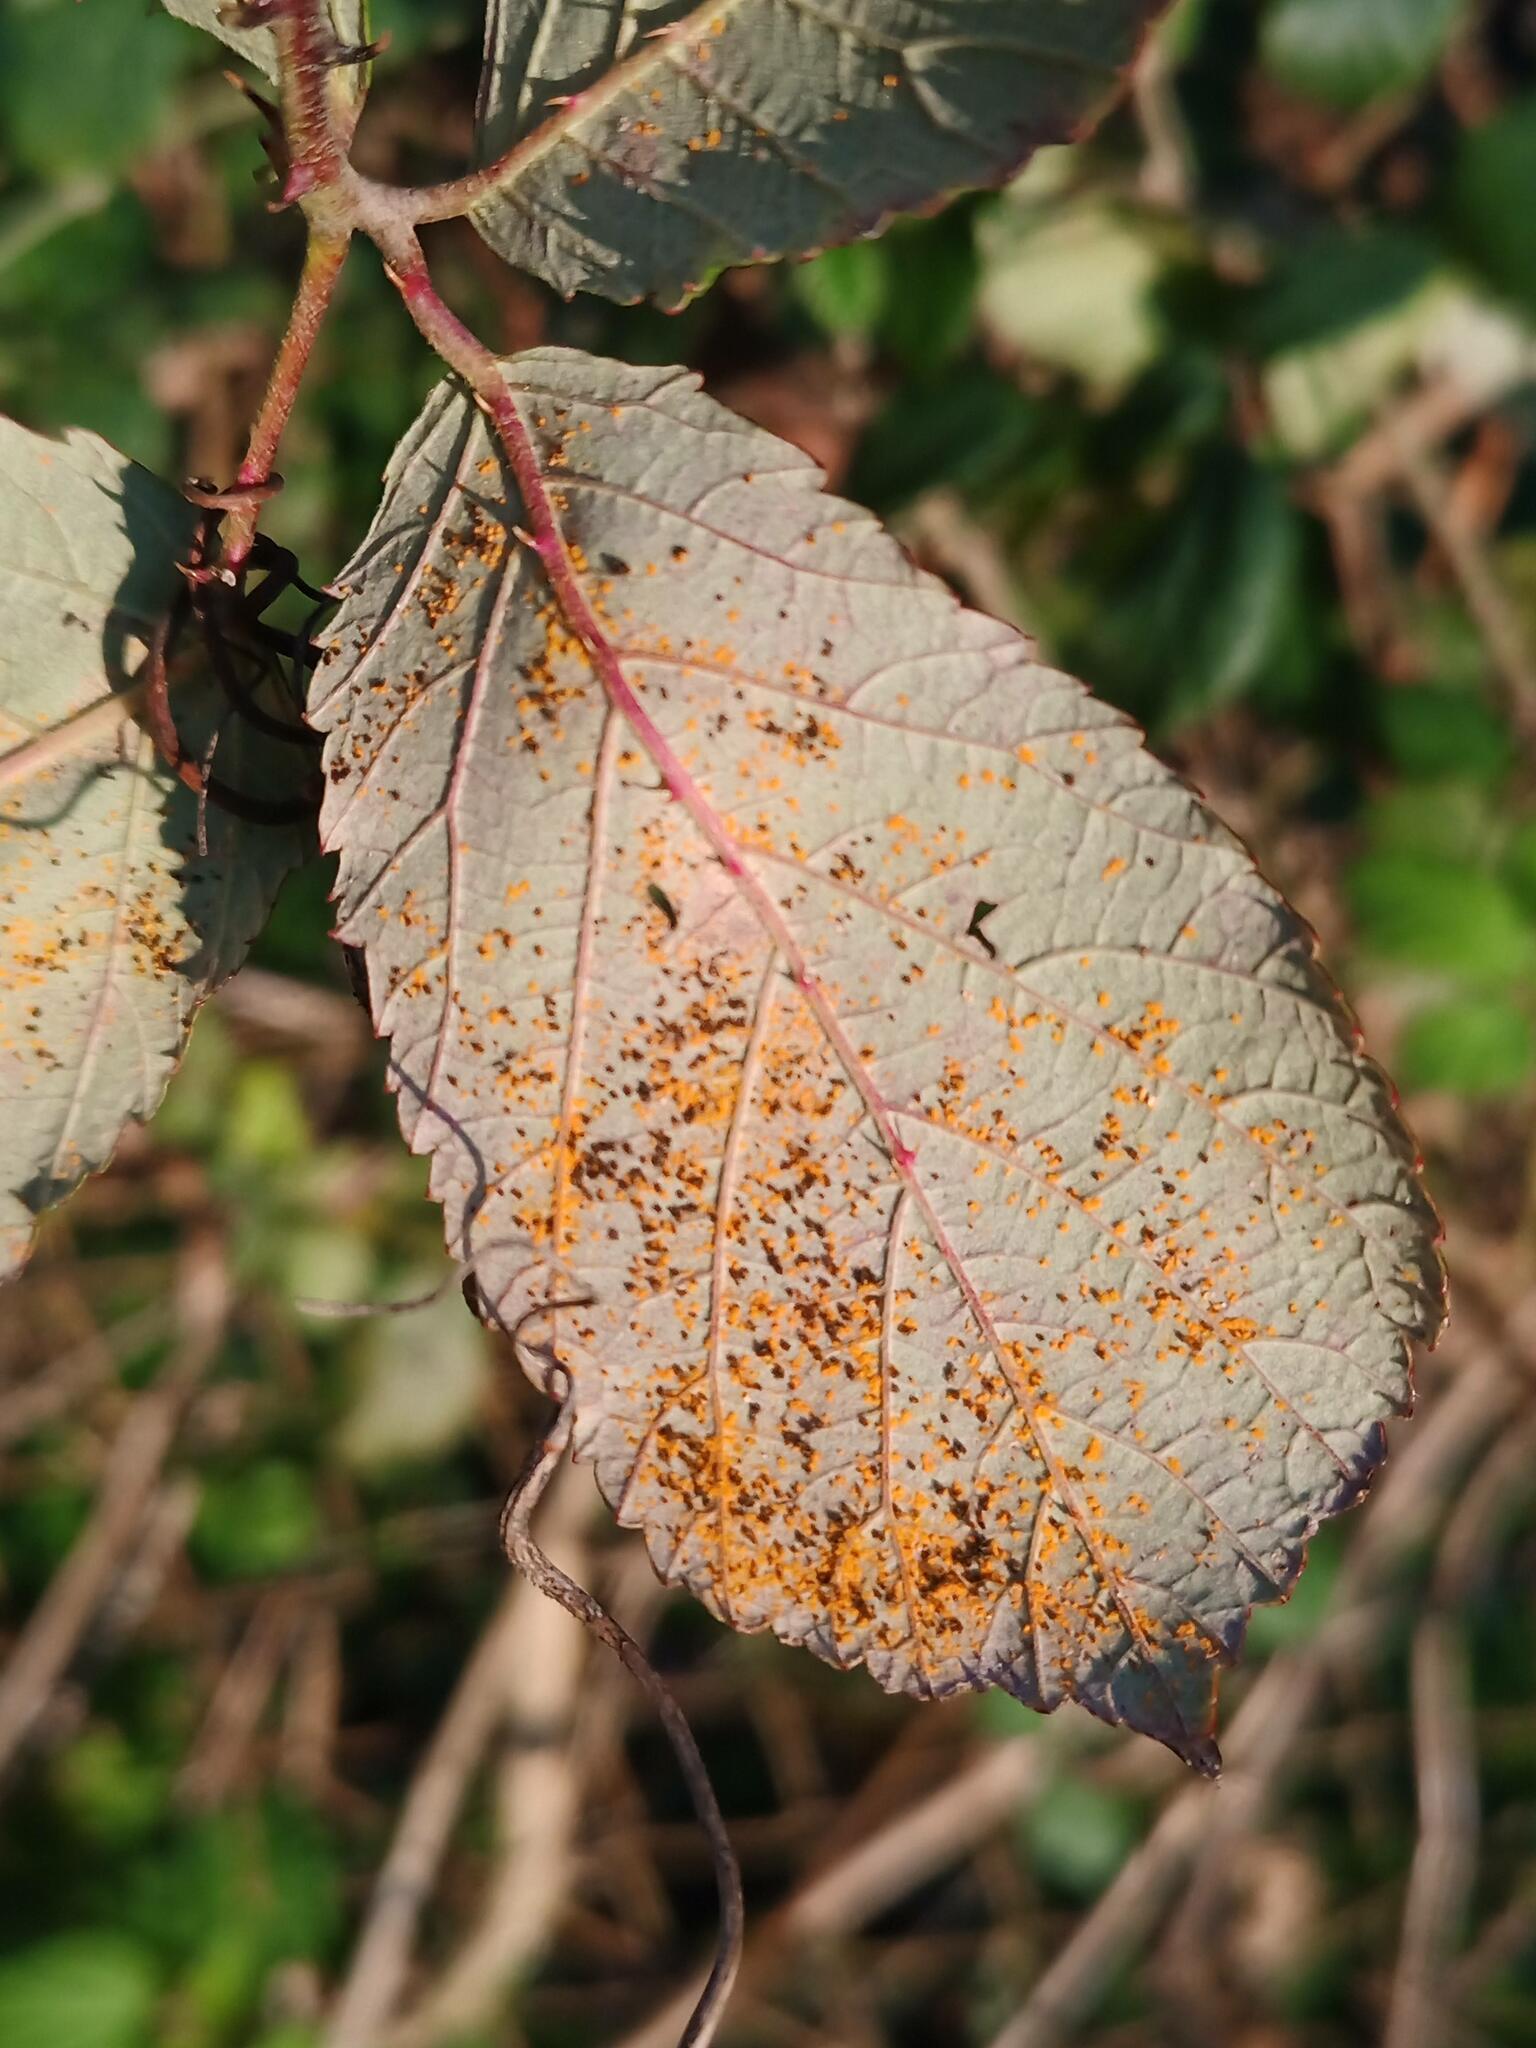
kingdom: Fungi
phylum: Basidiomycota
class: Pucciniomycetes
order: Pucciniales
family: Phragmidiaceae
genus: Phragmidium
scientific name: Phragmidium violaceum
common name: Violet bramble rust
